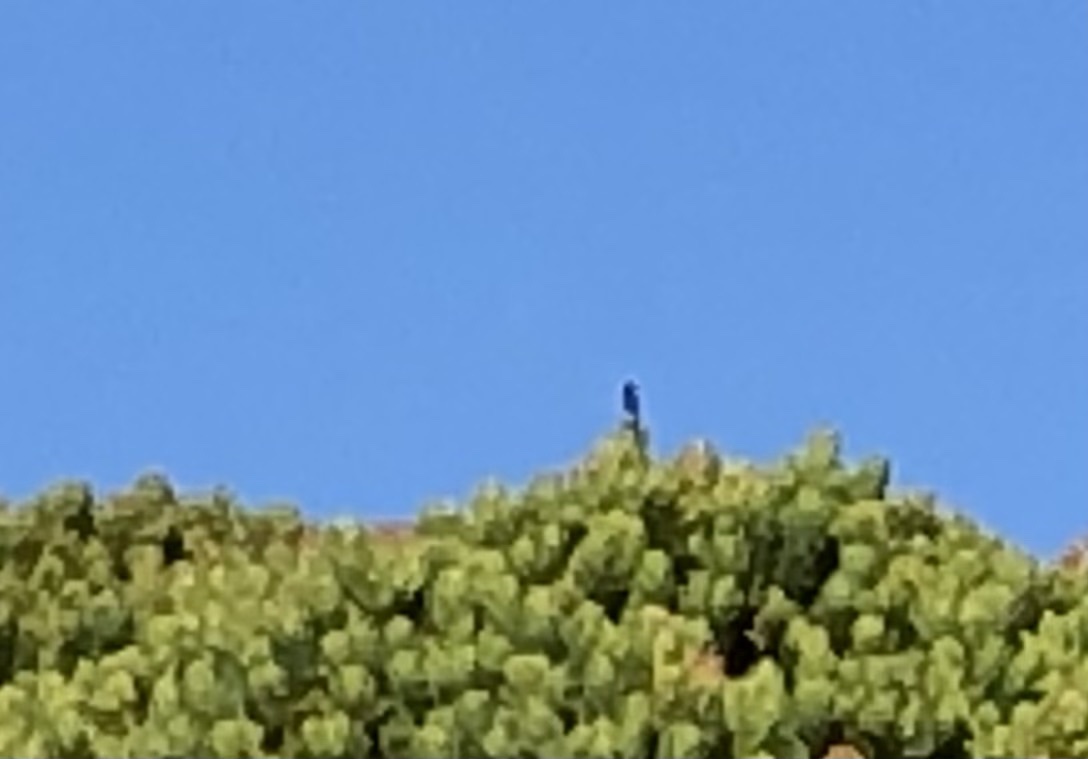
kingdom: Animalia
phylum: Chordata
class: Aves
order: Passeriformes
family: Nectariniidae
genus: Anthobaphes
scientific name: Anthobaphes violacea
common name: Orange-breasted sunbird
